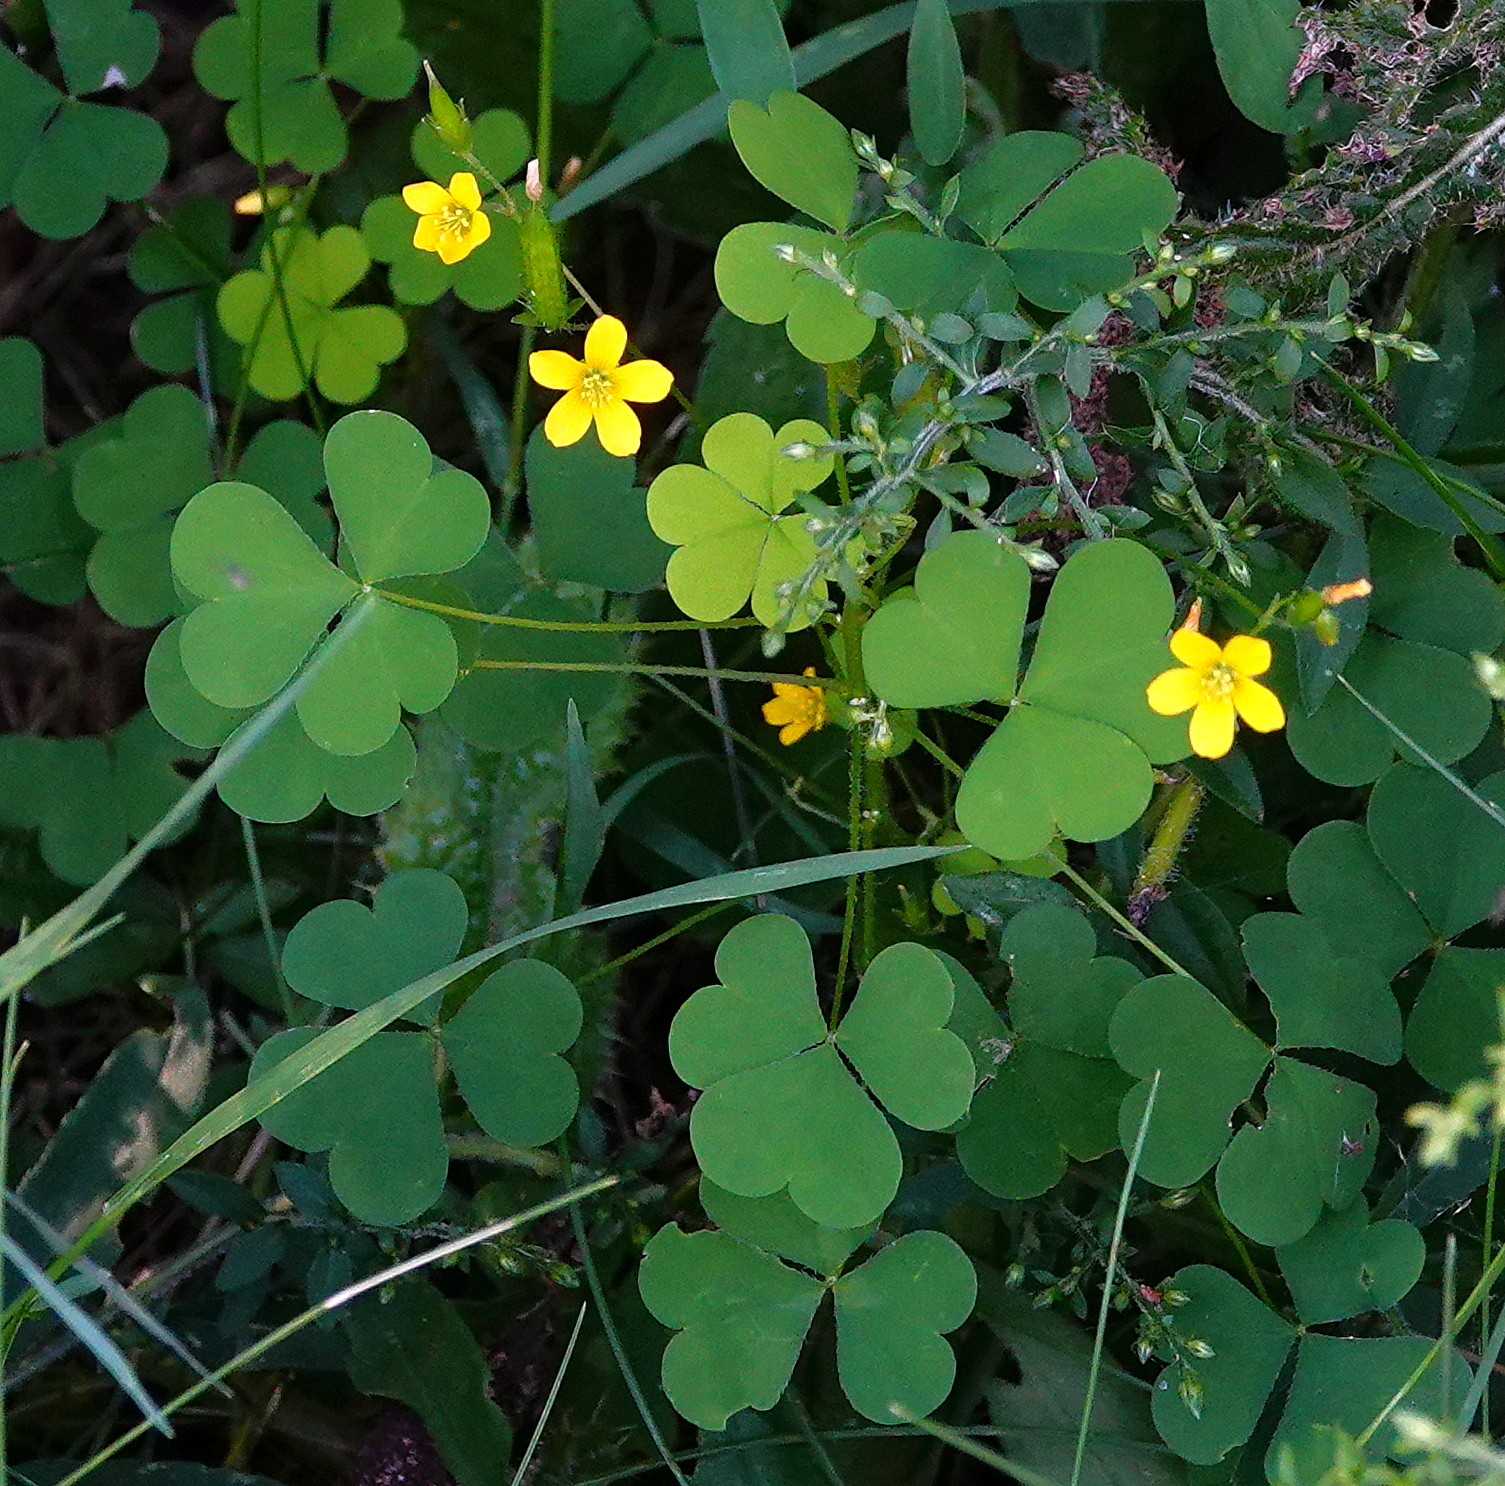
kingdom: Plantae
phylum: Tracheophyta
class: Magnoliopsida
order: Oxalidales
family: Oxalidaceae
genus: Oxalis
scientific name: Oxalis stricta
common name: Upright yellow-sorrel
